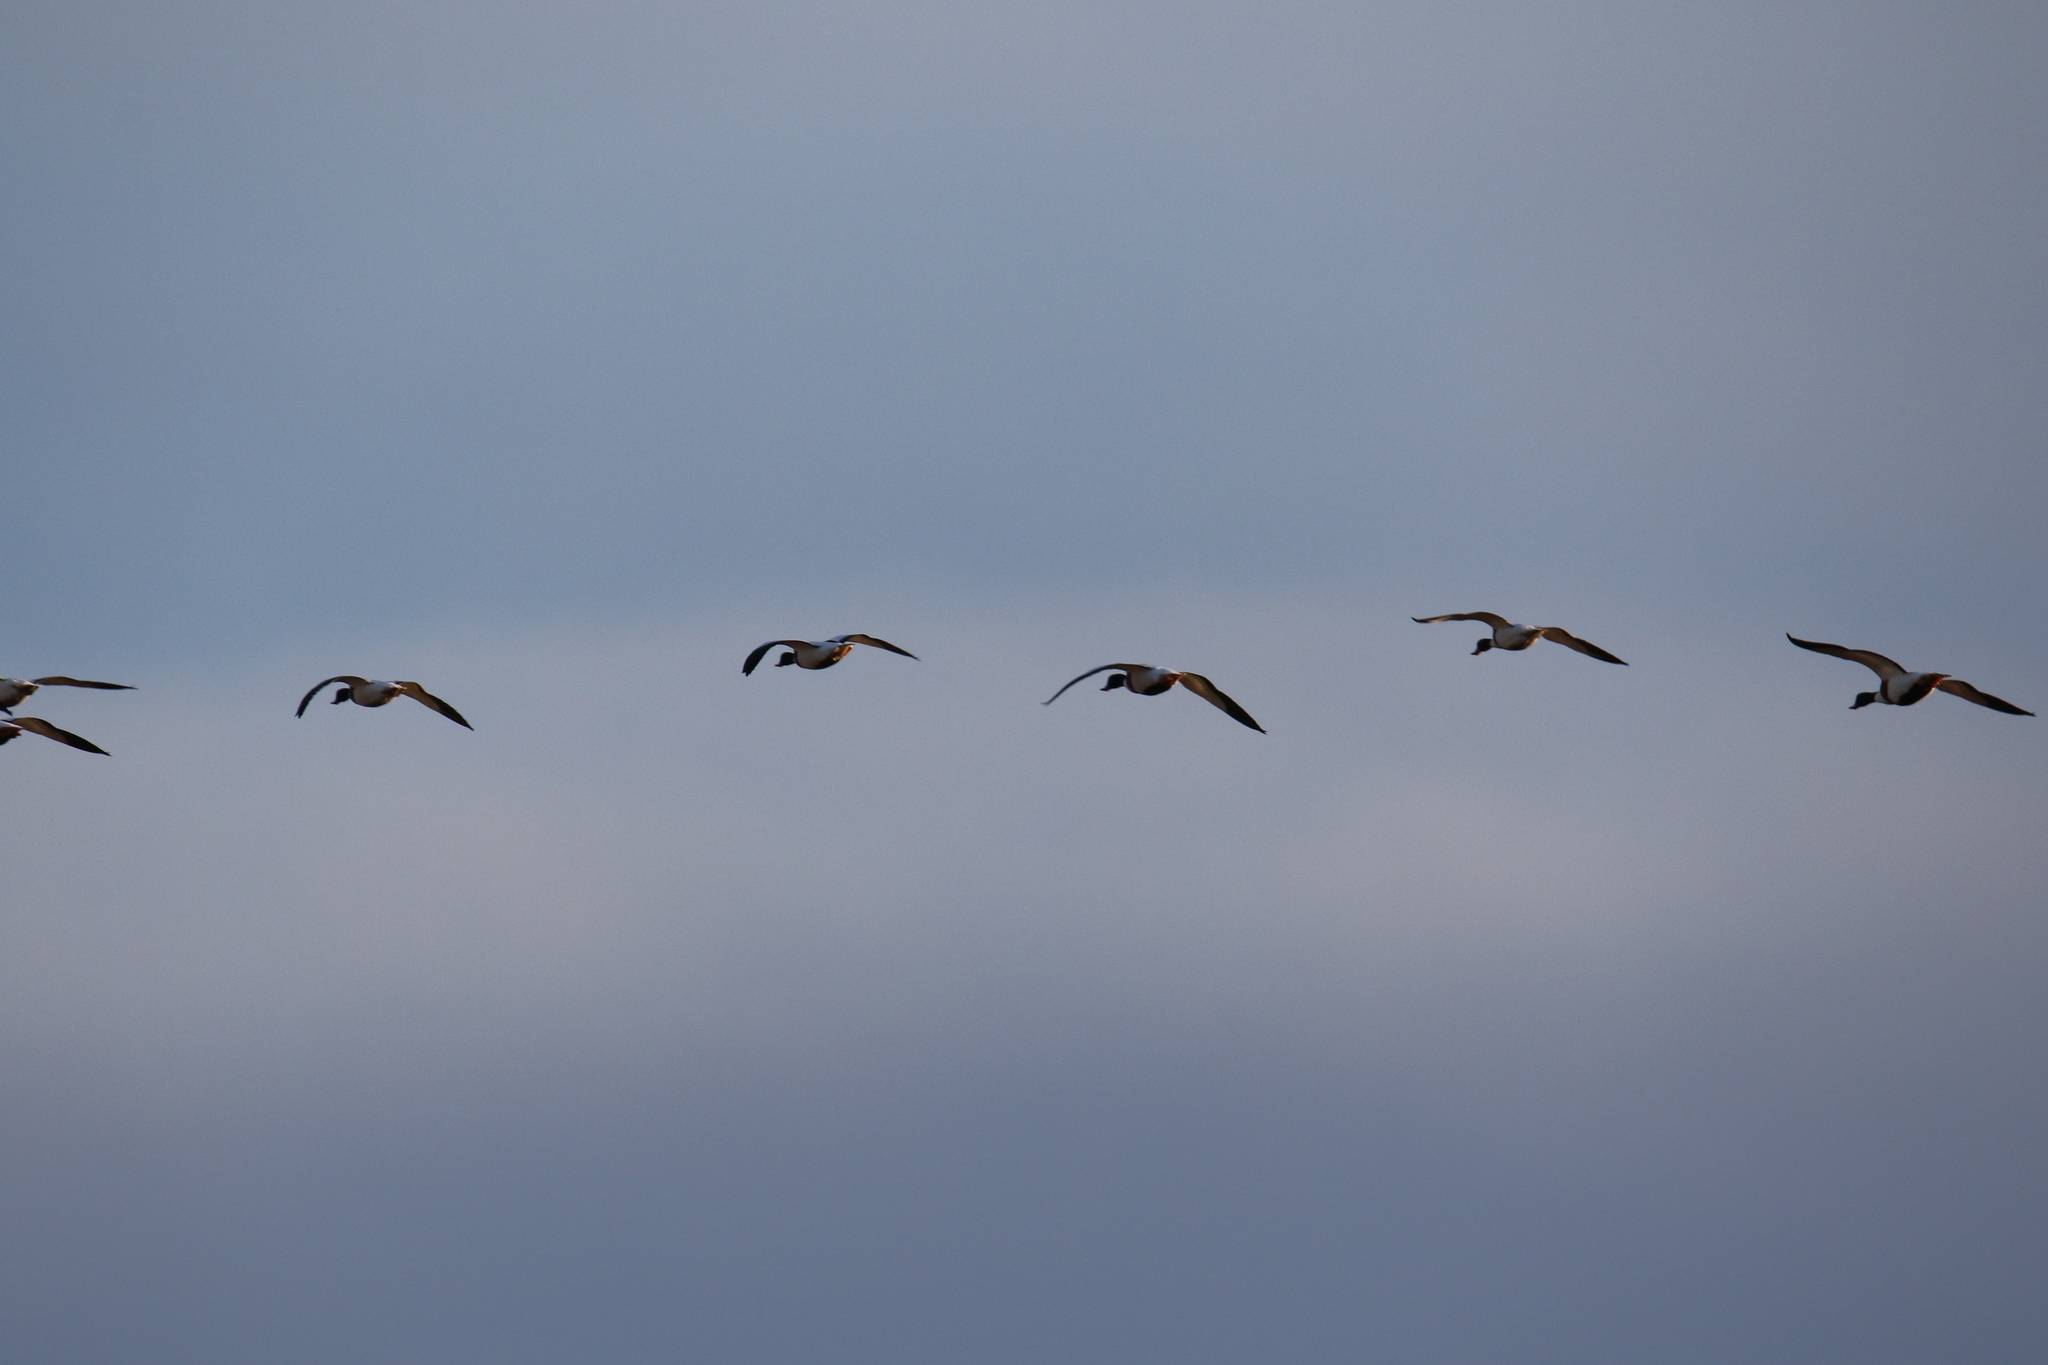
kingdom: Animalia
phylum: Chordata
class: Aves
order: Anseriformes
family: Anatidae
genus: Tadorna
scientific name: Tadorna tadorna
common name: Common shelduck
